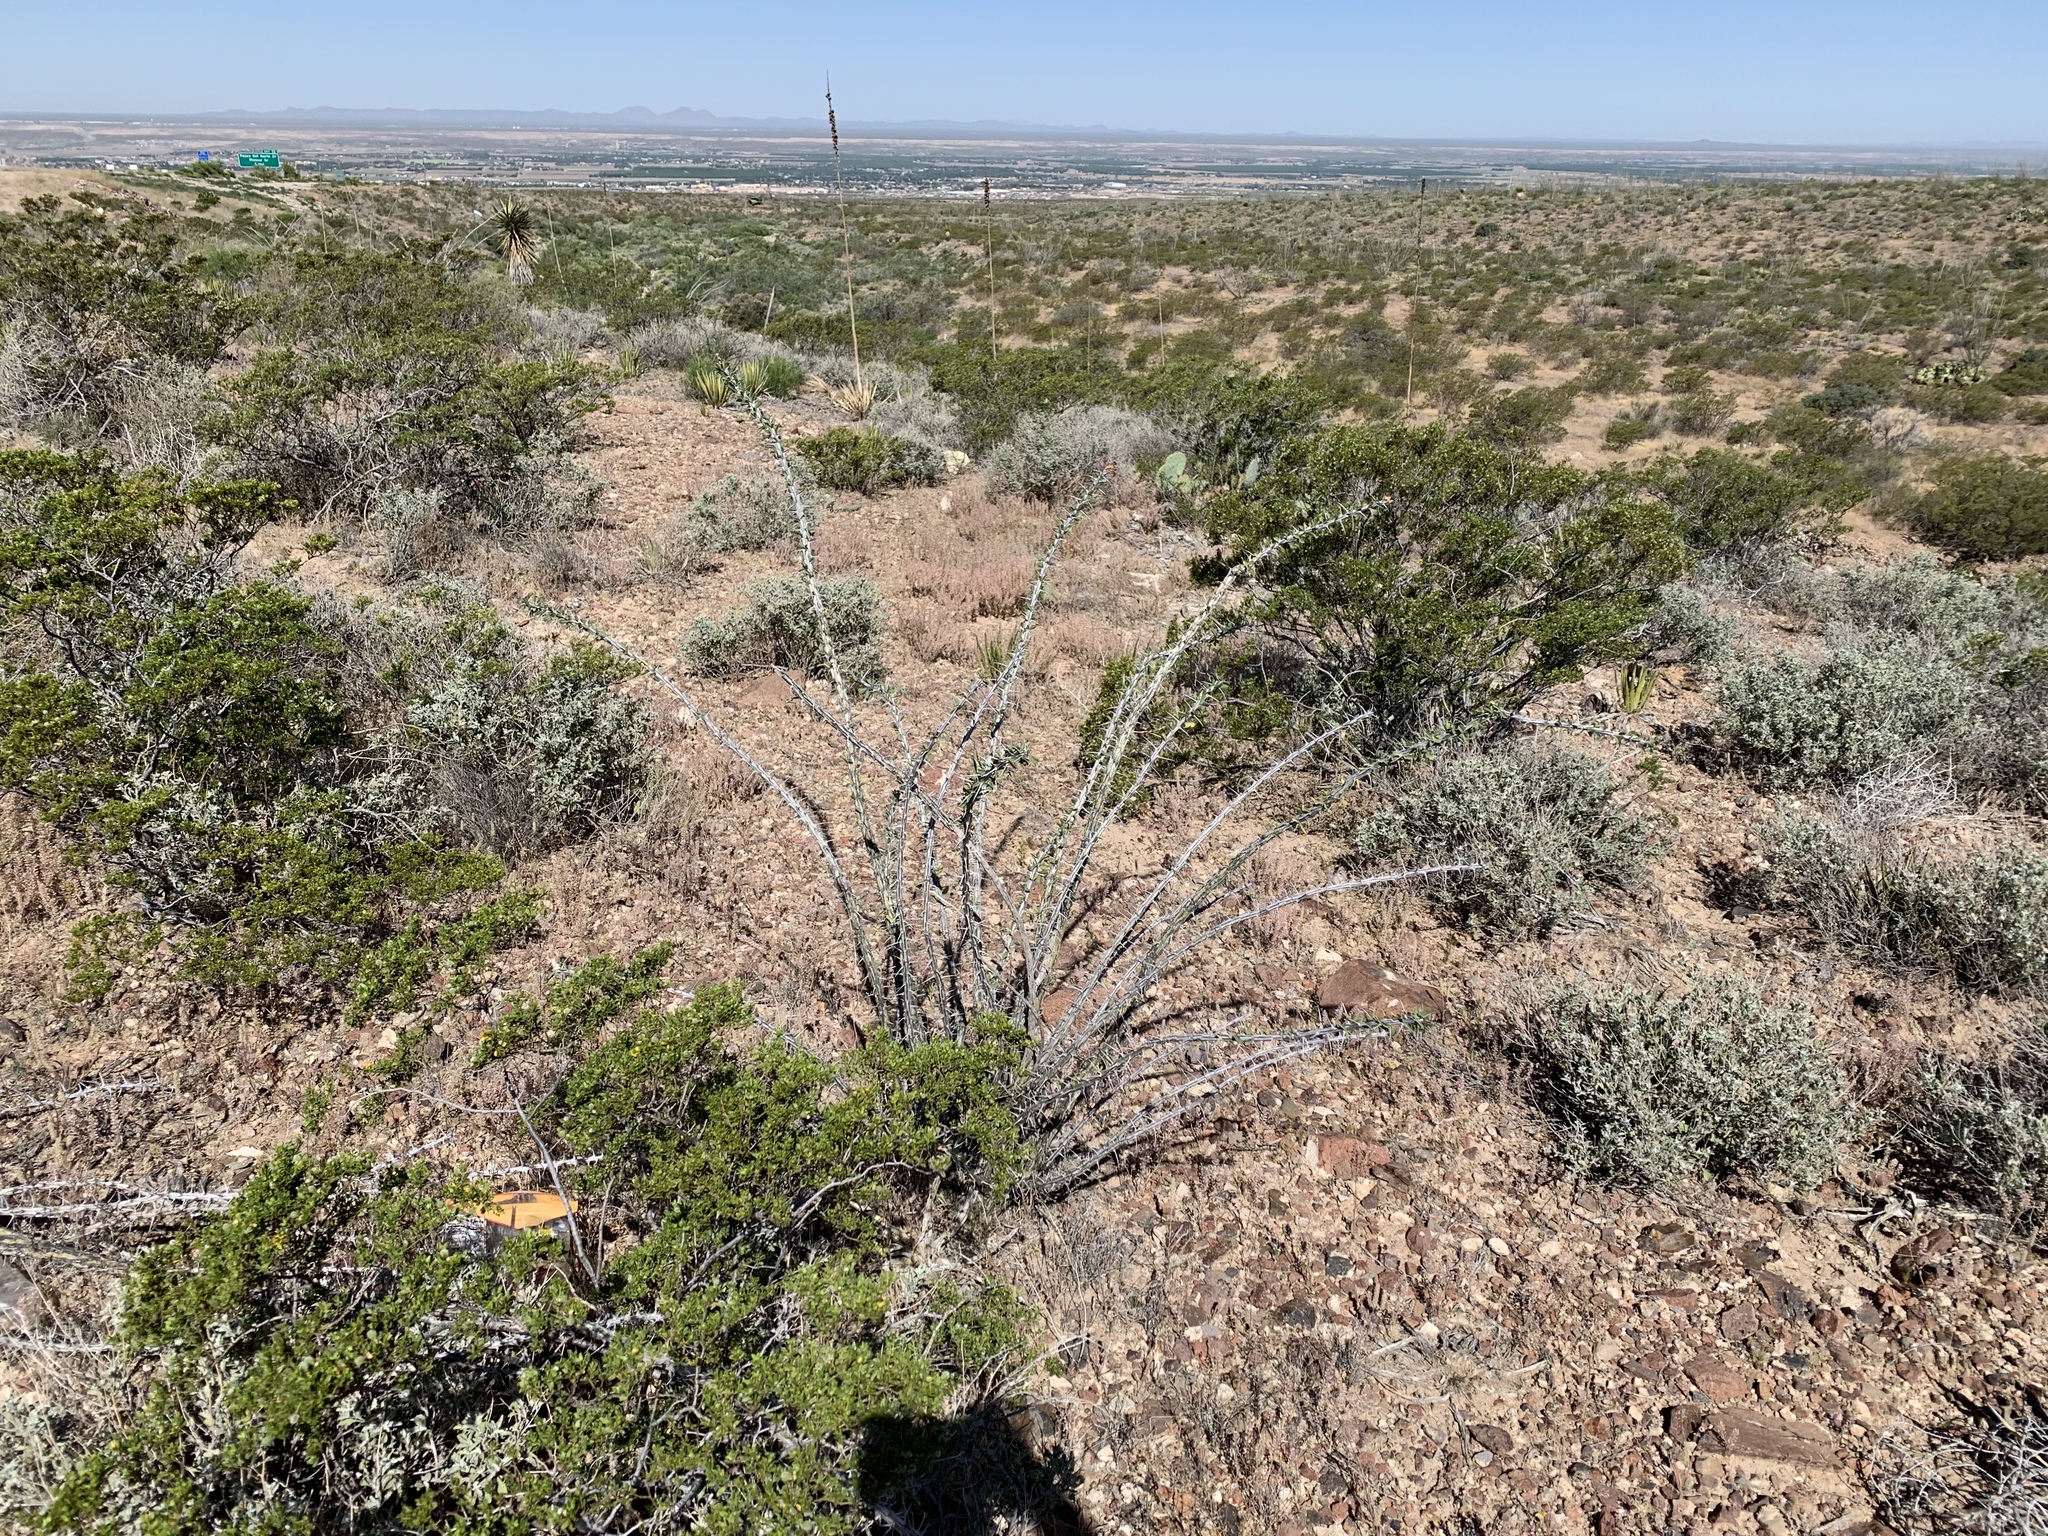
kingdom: Plantae
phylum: Tracheophyta
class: Magnoliopsida
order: Ericales
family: Fouquieriaceae
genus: Fouquieria
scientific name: Fouquieria splendens
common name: Vine-cactus
